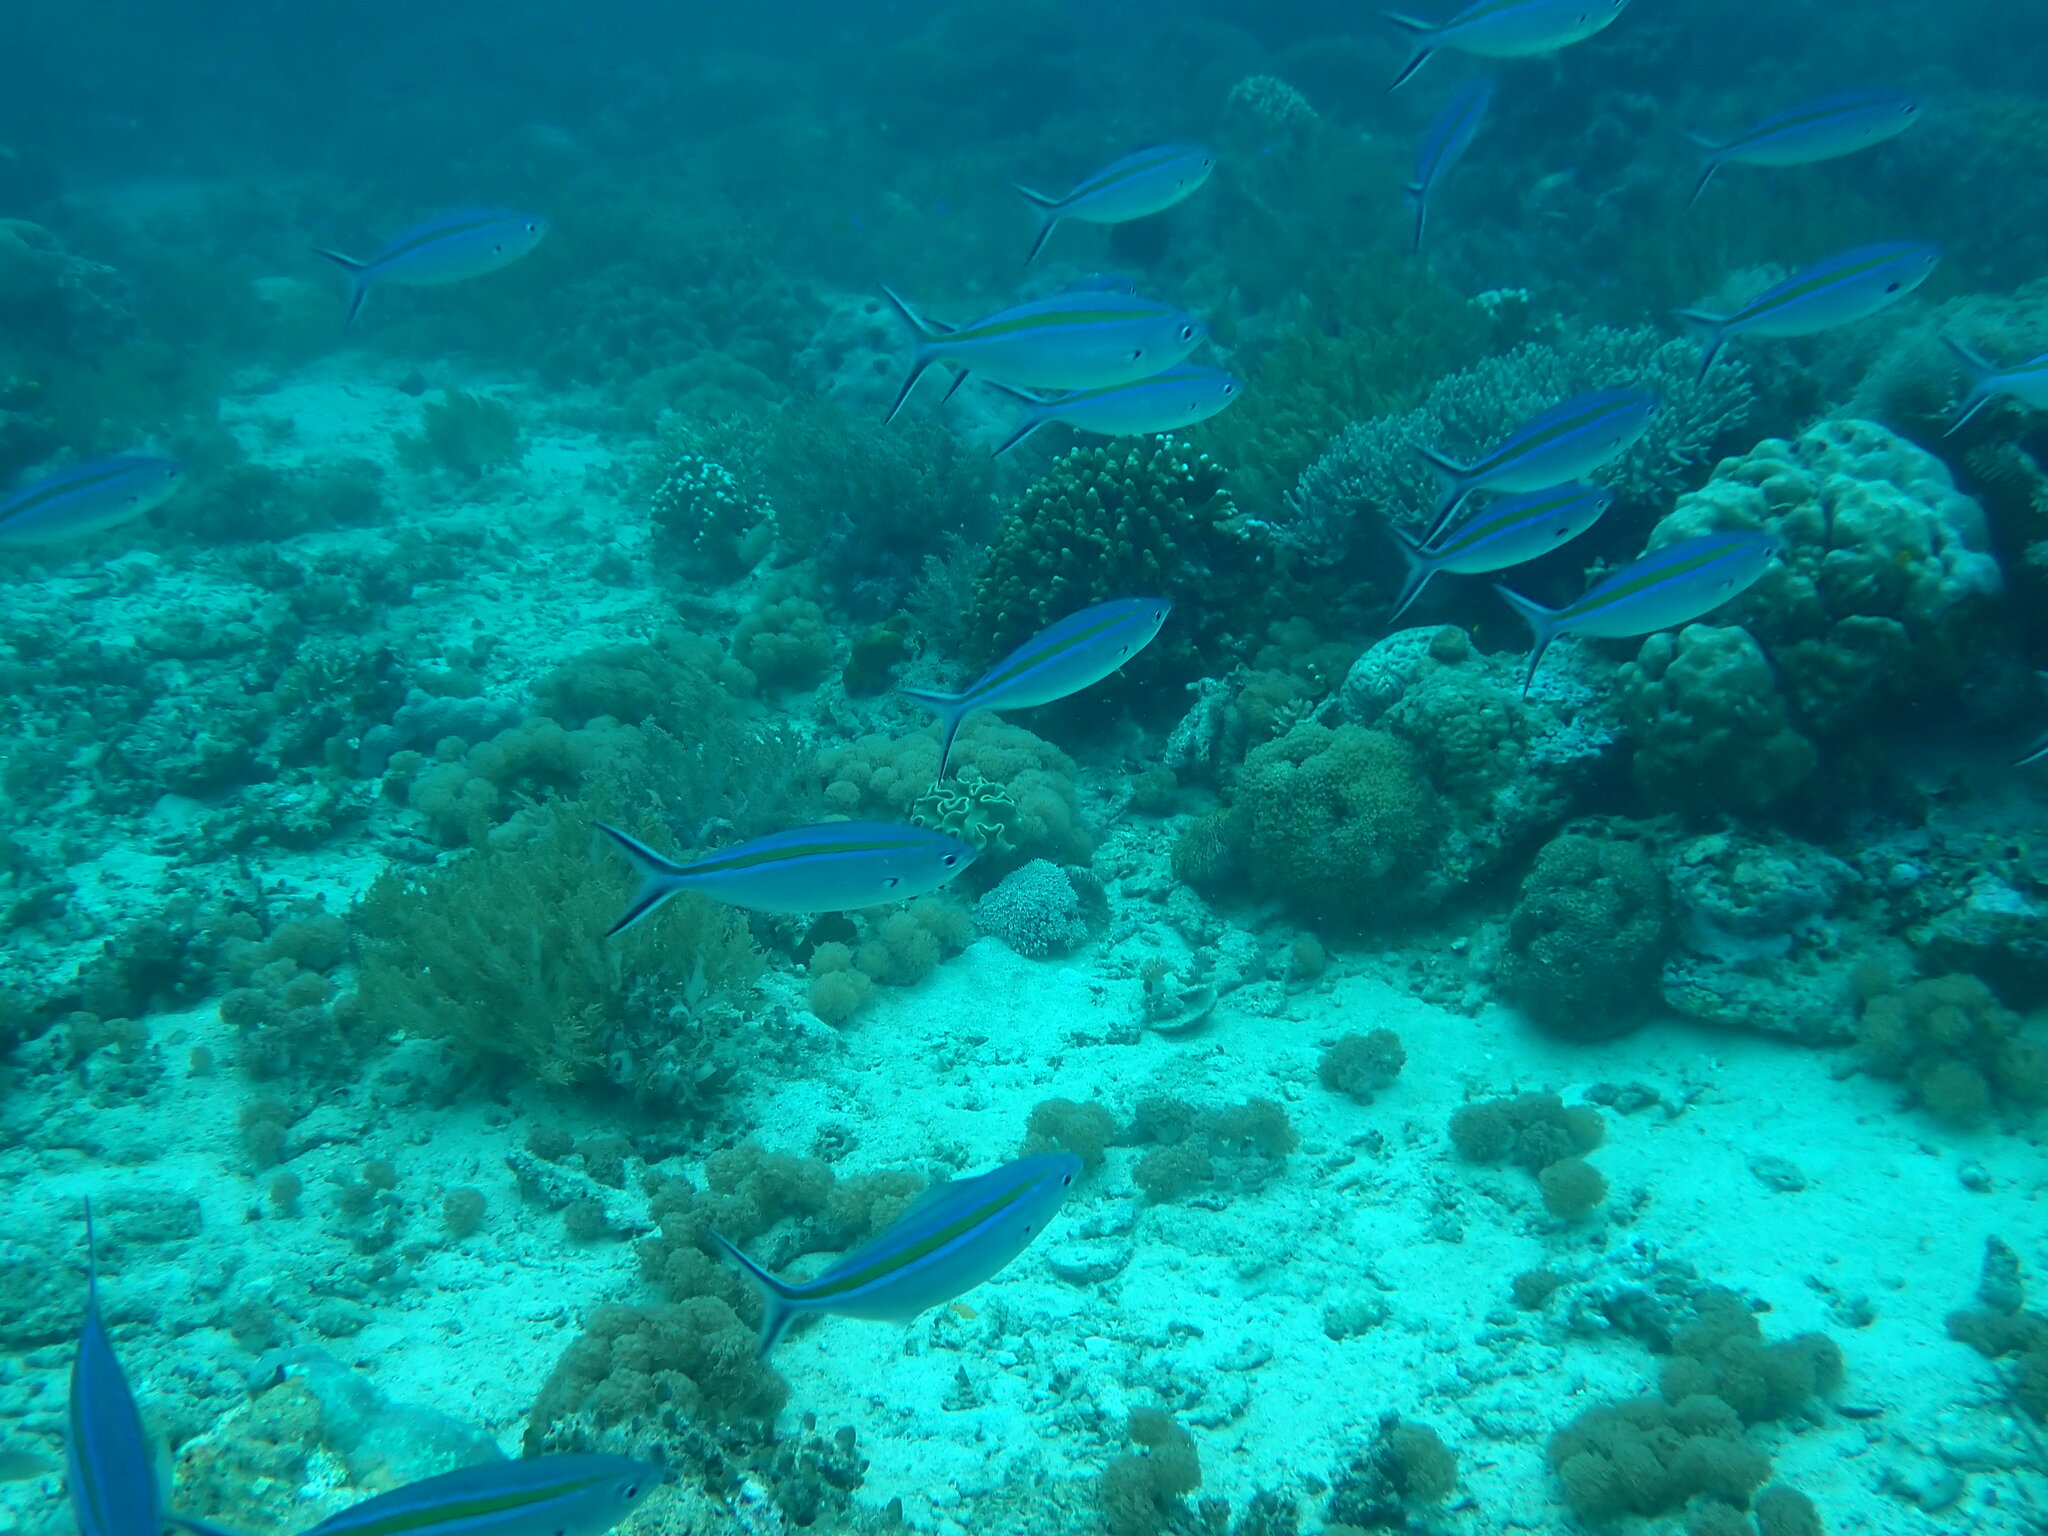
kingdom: Animalia
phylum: Chordata
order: Perciformes
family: Caesionidae
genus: Caesio
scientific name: Caesio caerulaurea
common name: Blue and gold fusilier
